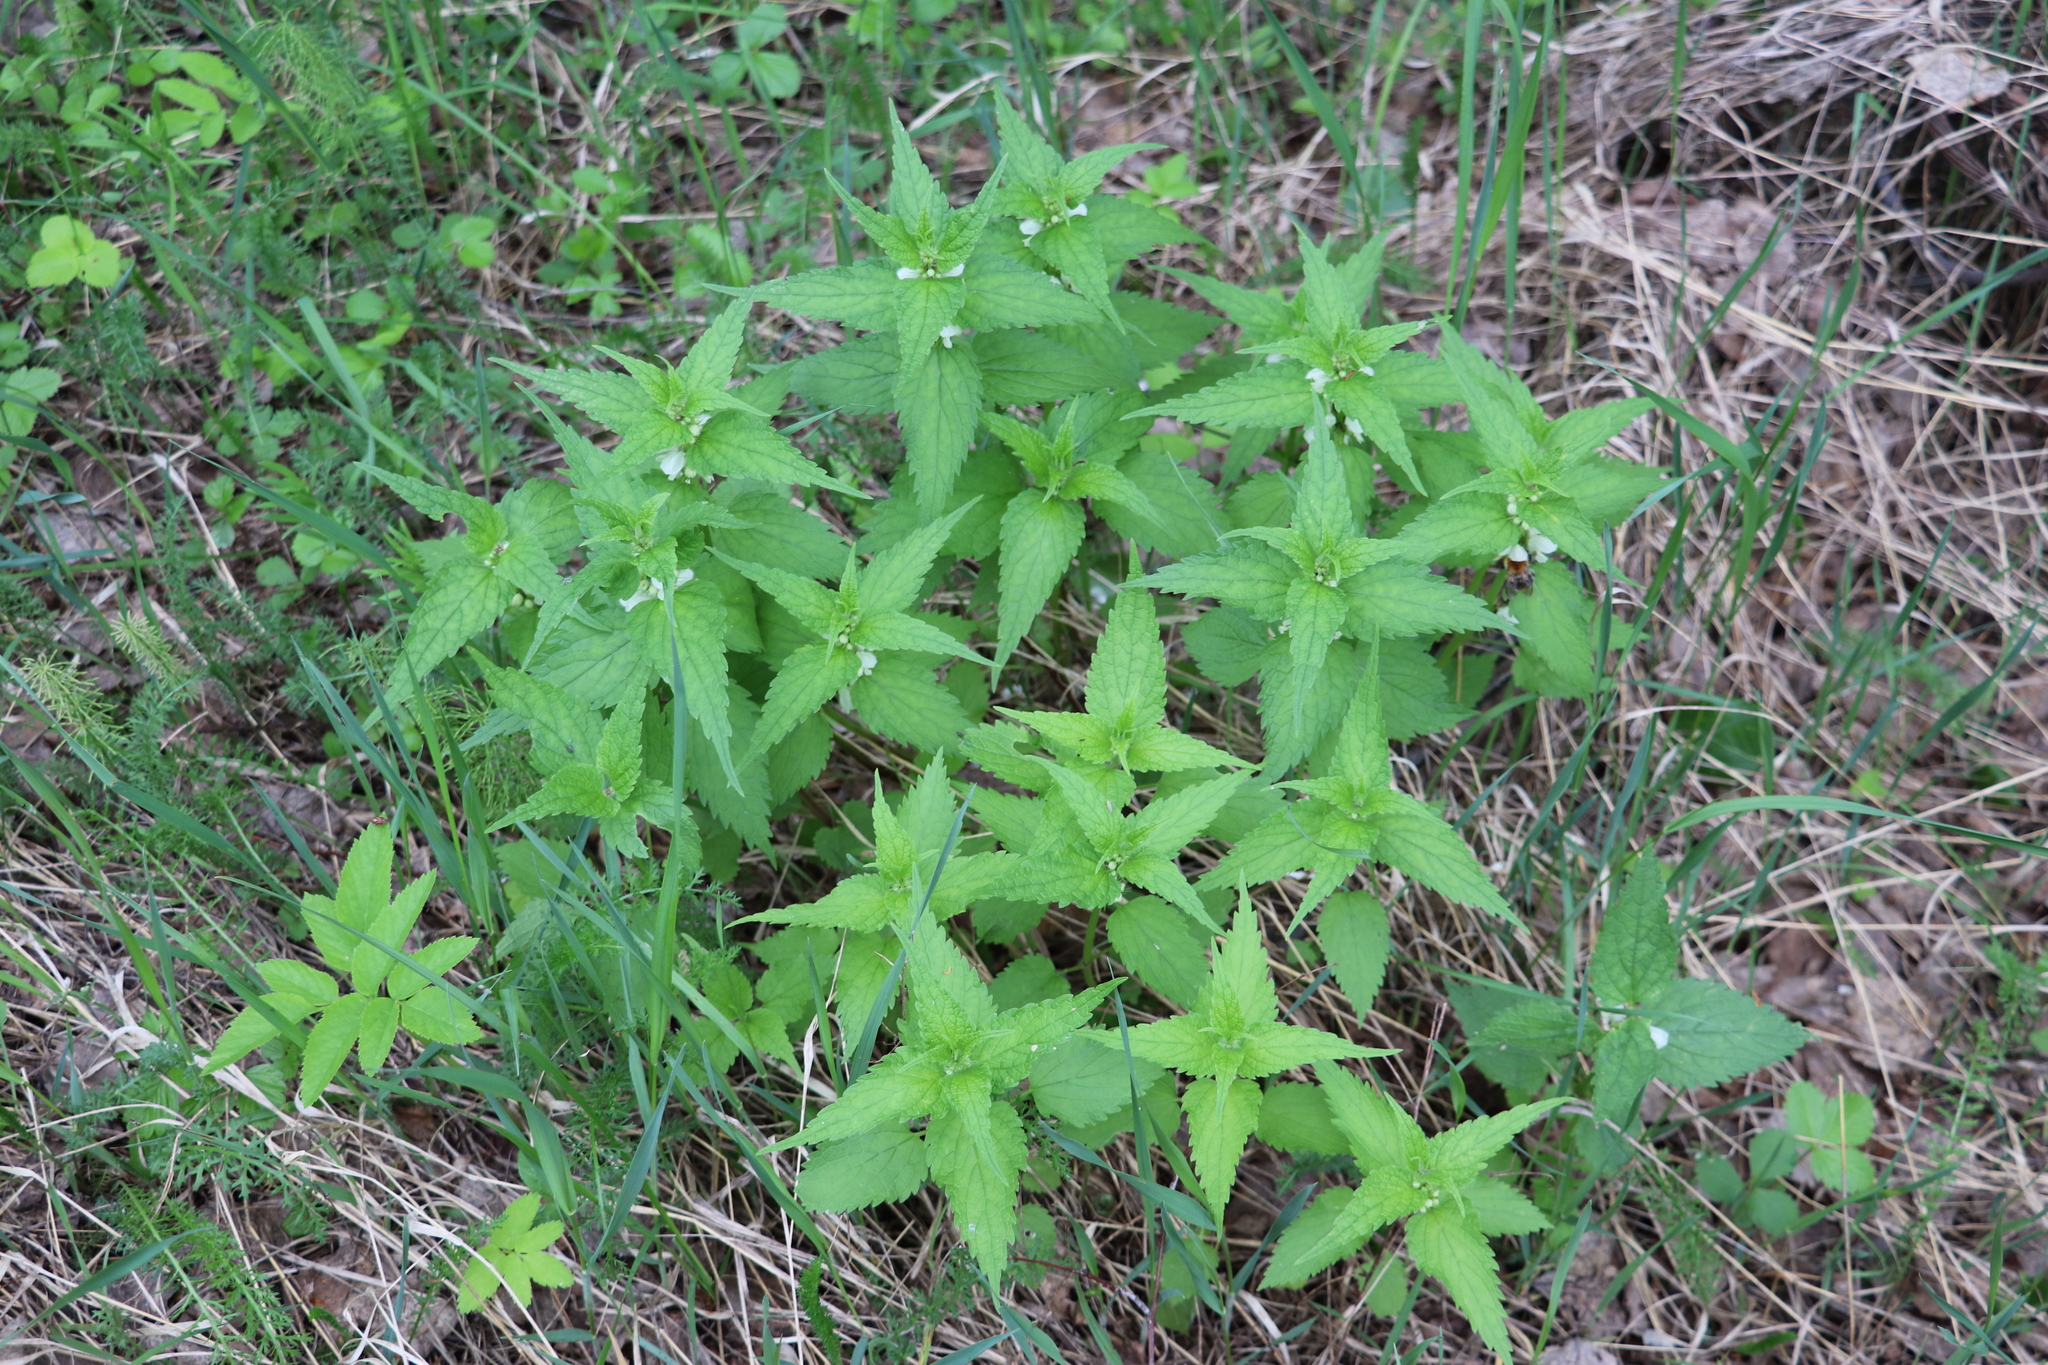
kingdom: Plantae
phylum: Tracheophyta
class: Magnoliopsida
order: Lamiales
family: Lamiaceae
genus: Lamium
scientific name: Lamium album
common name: White dead-nettle
